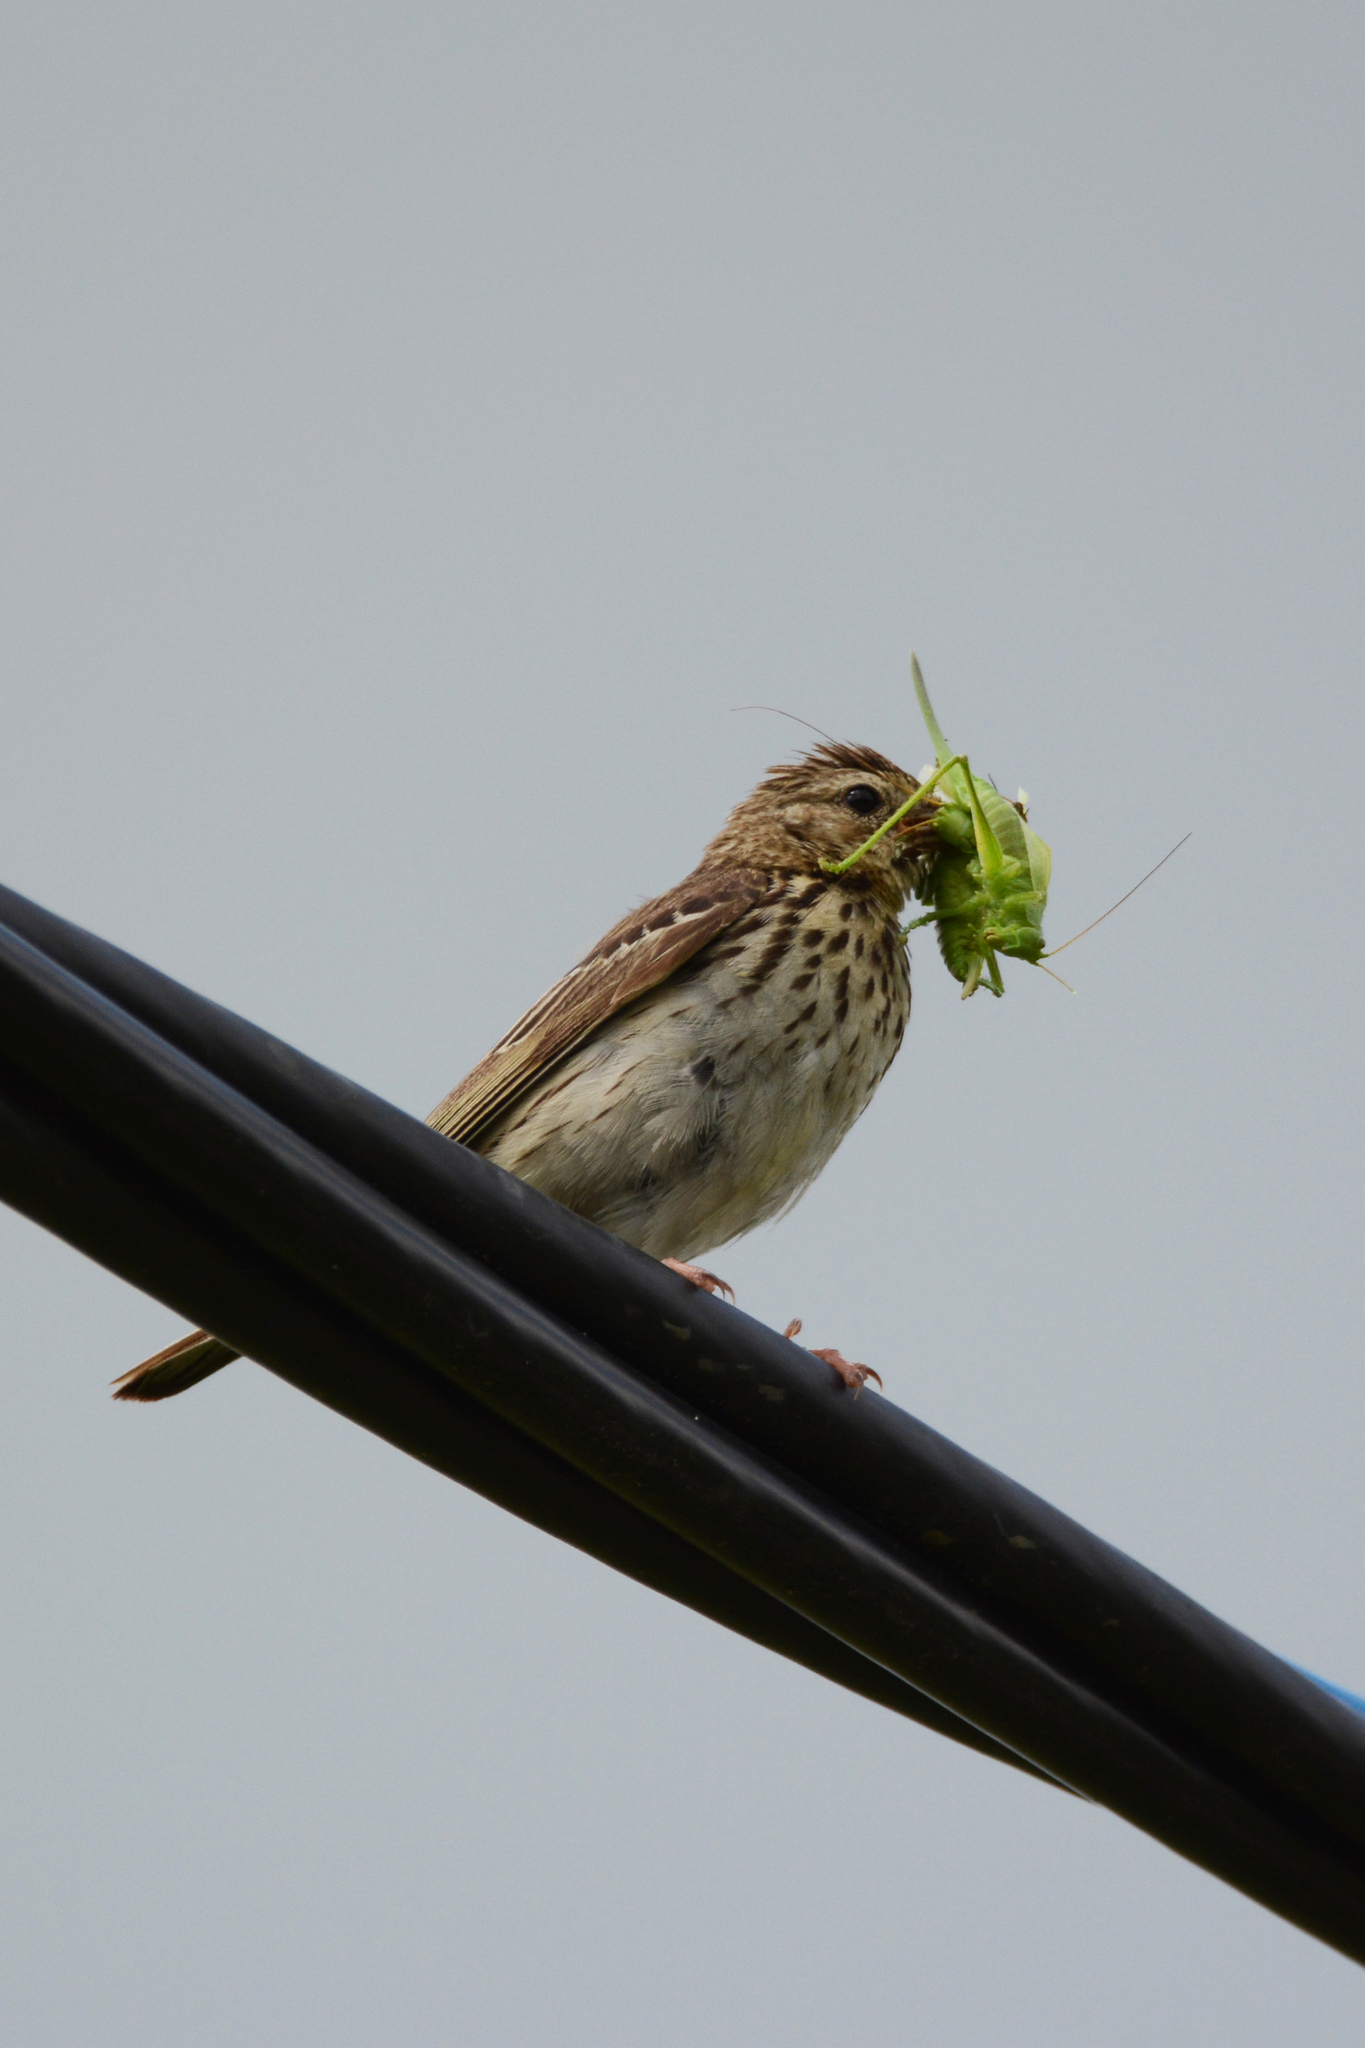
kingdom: Animalia
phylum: Chordata
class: Aves
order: Passeriformes
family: Motacillidae
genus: Anthus
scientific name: Anthus trivialis
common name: Tree pipit
